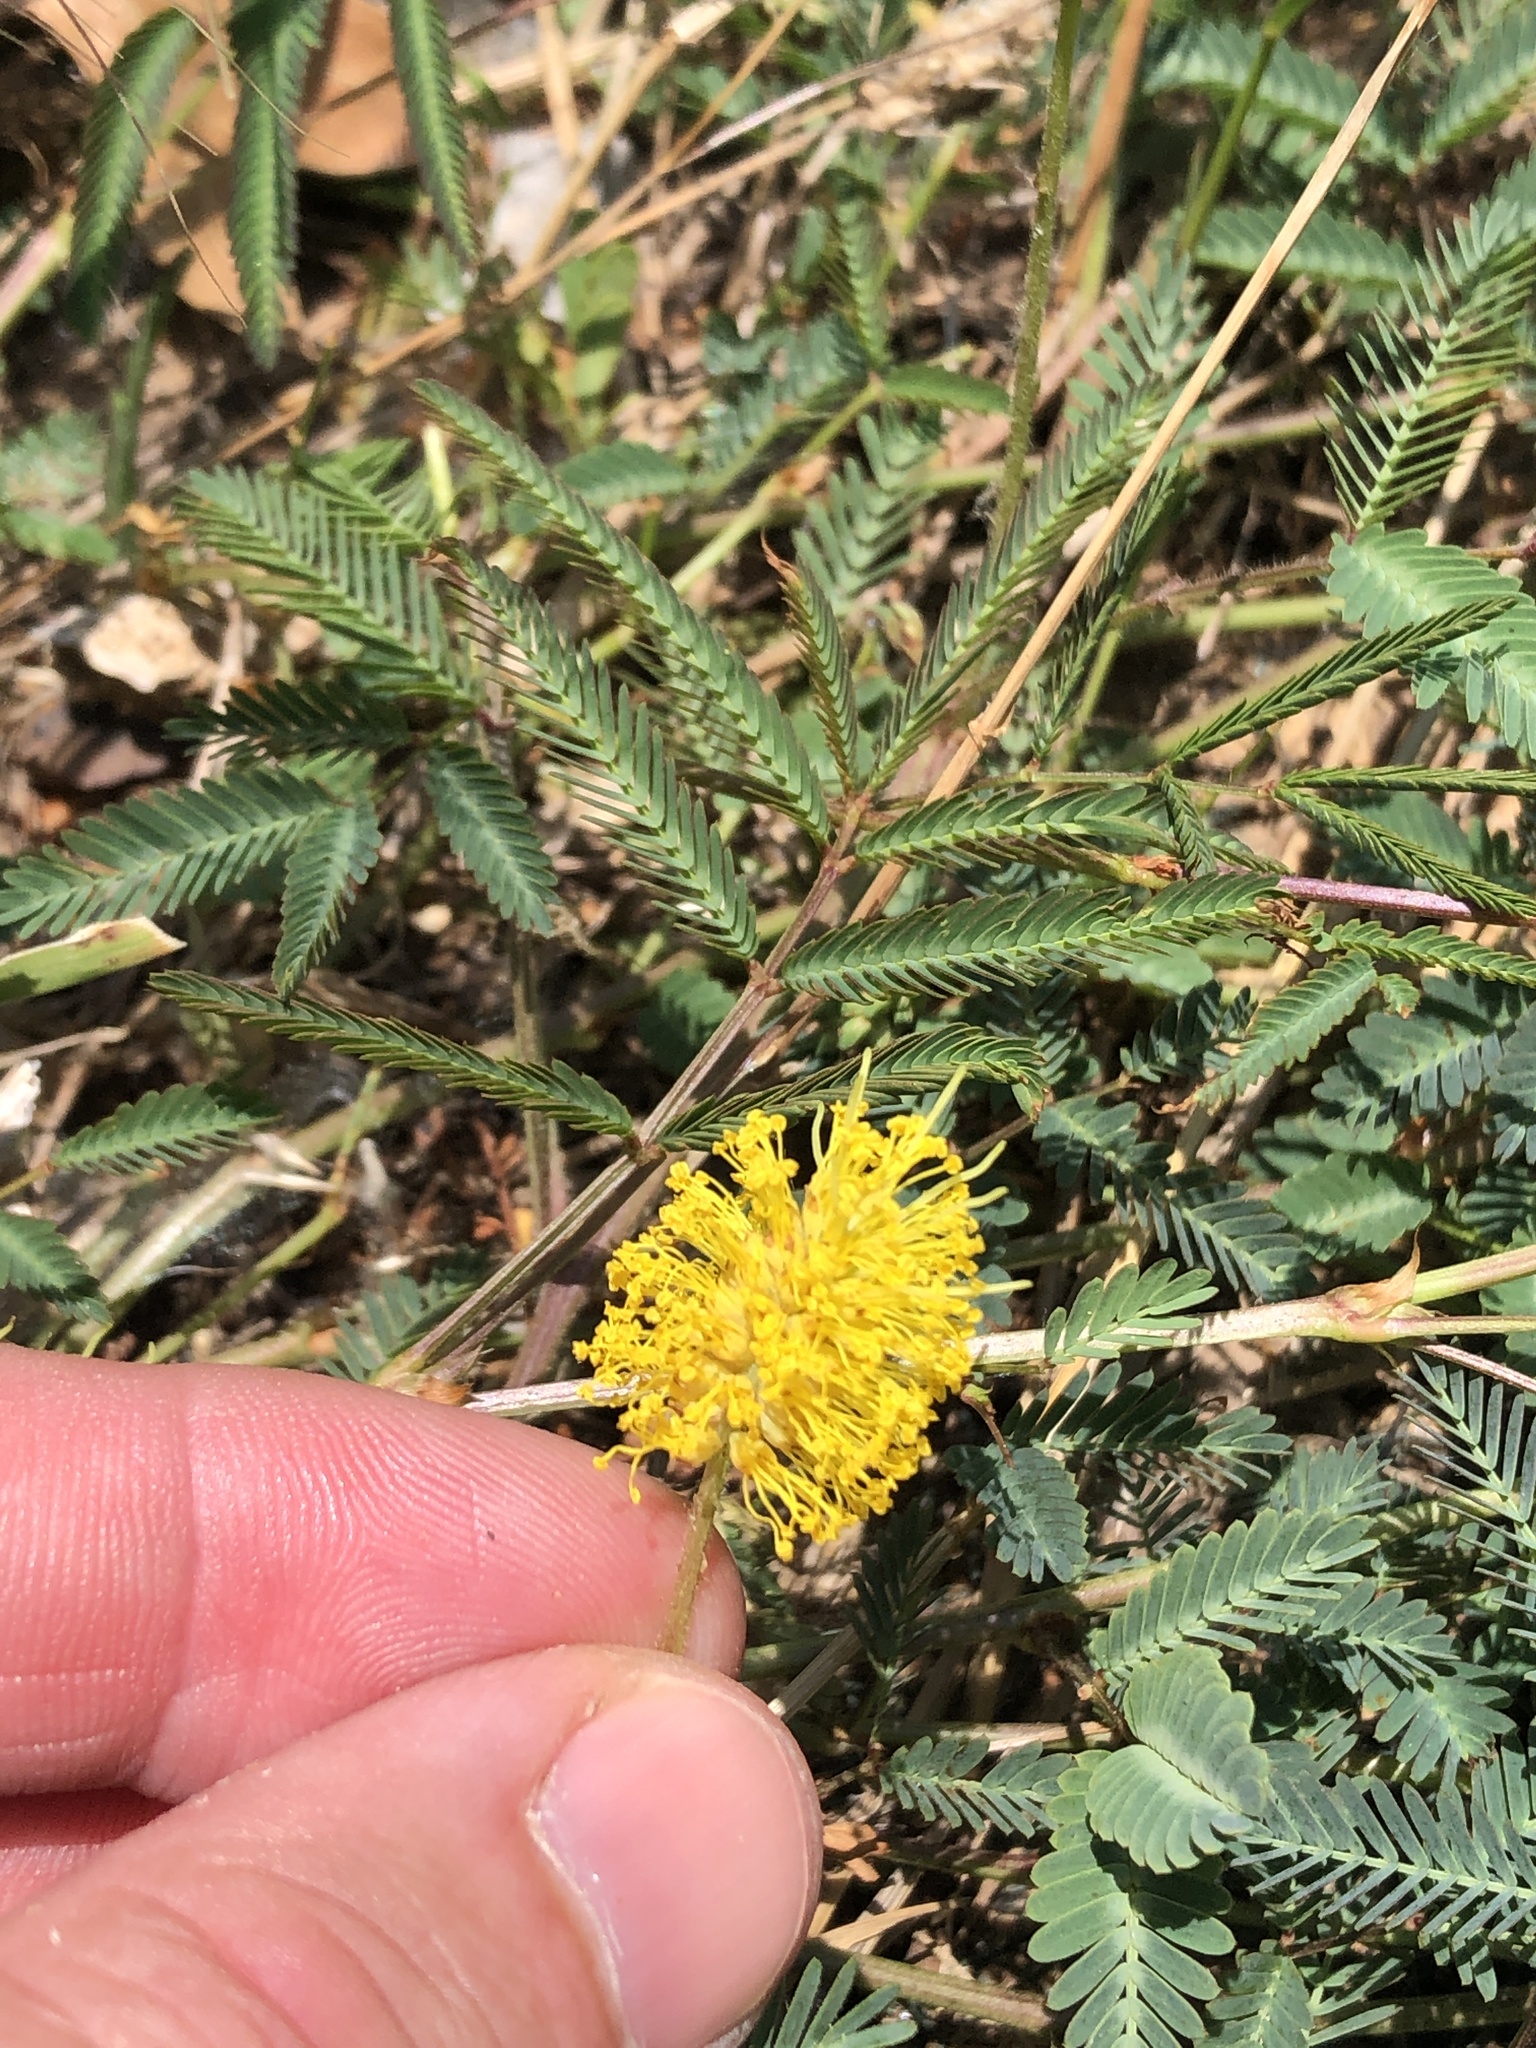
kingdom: Plantae
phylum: Tracheophyta
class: Magnoliopsida
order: Fabales
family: Fabaceae
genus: Neptunia
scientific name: Neptunia lutea
